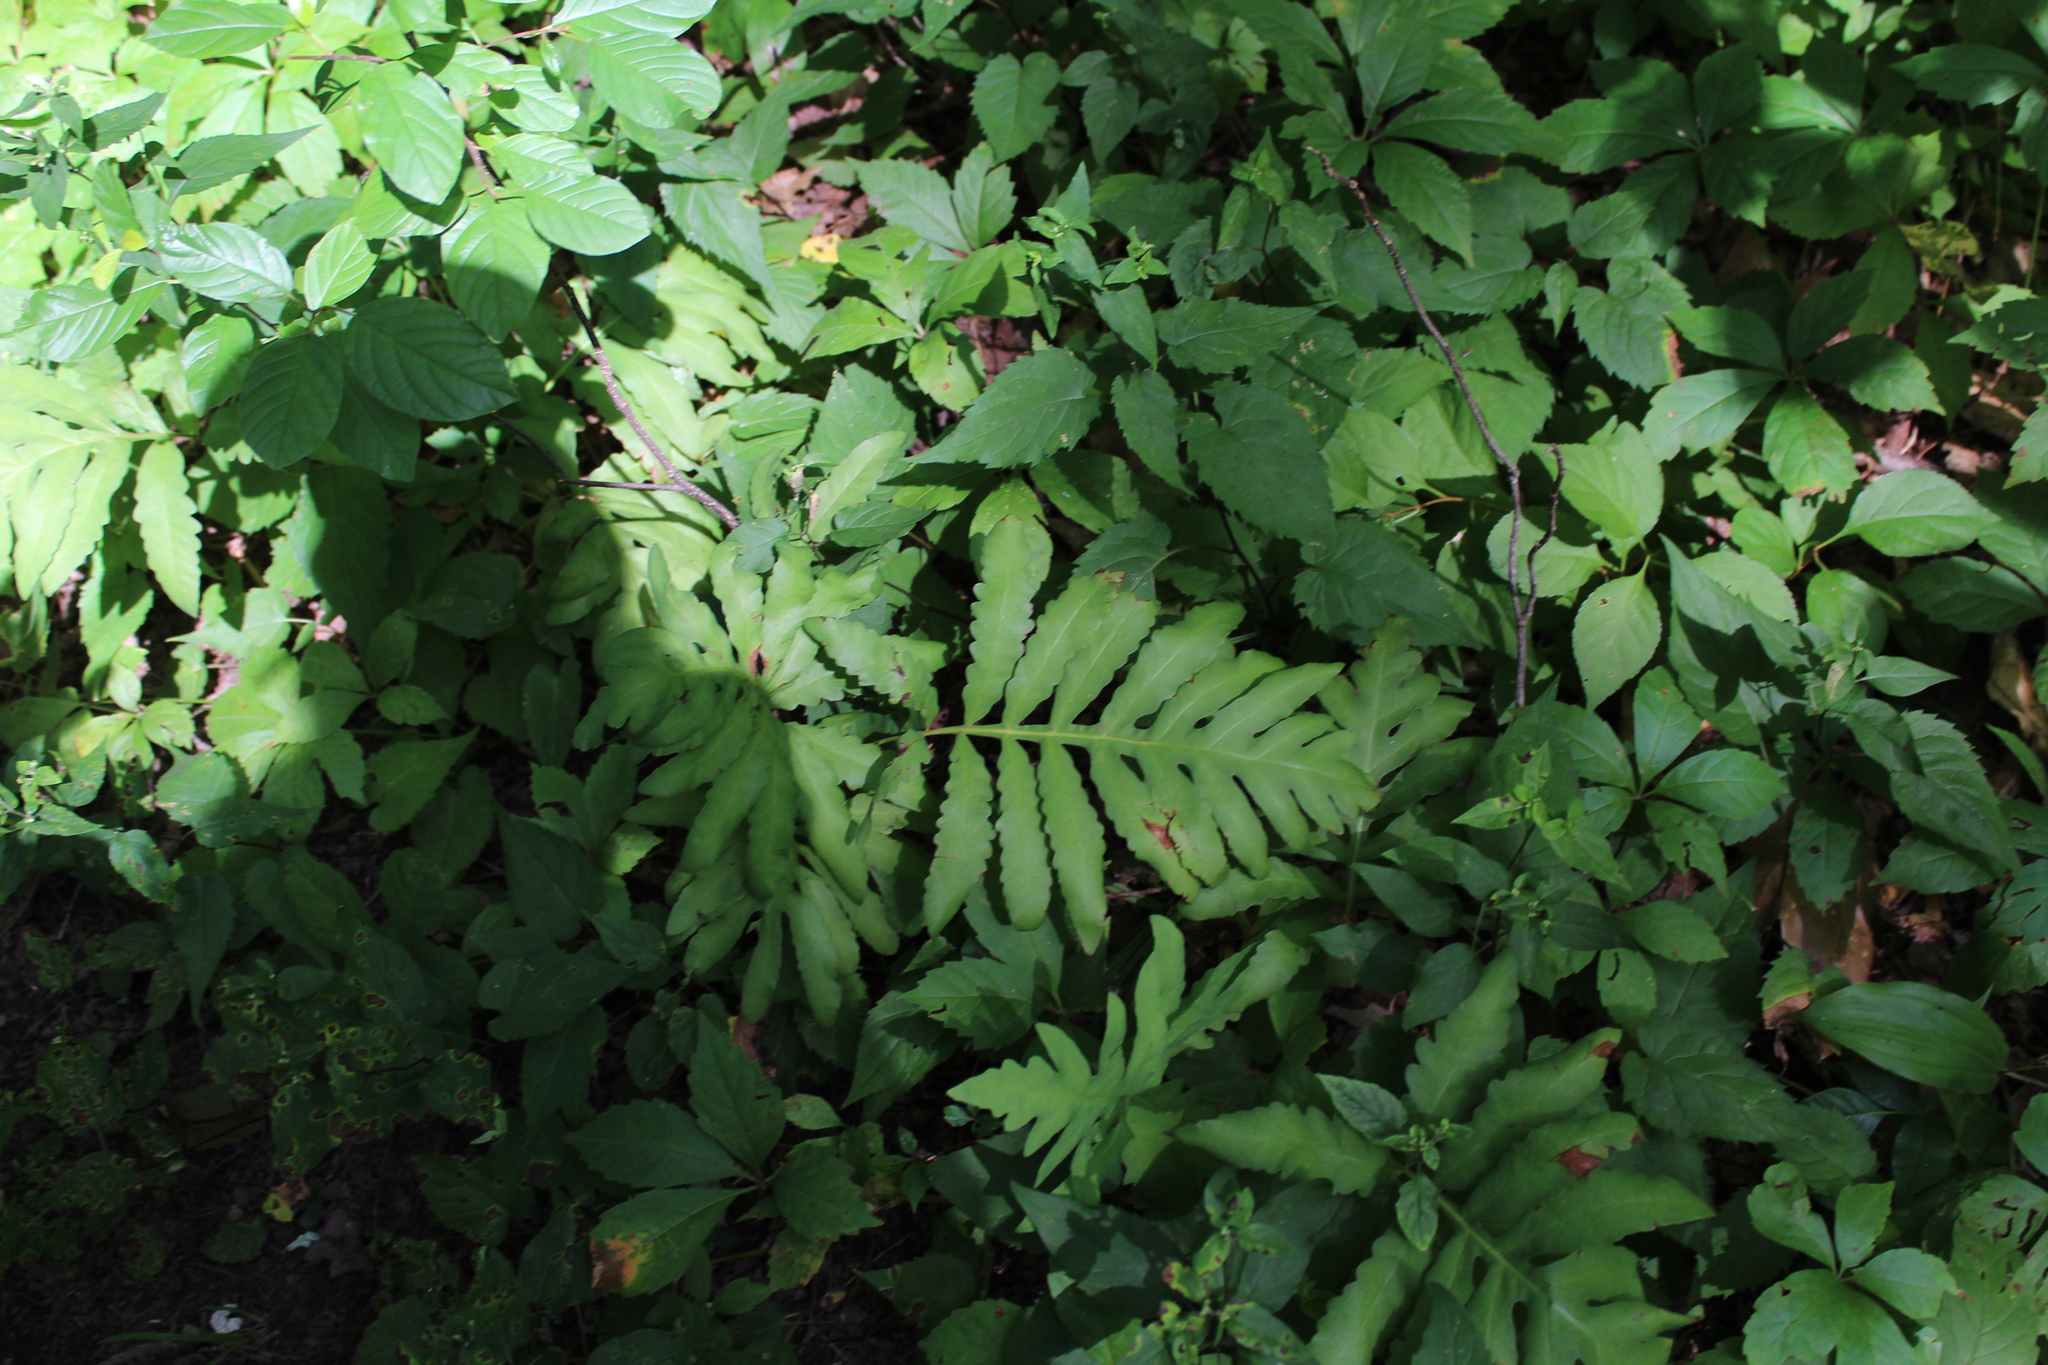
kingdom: Plantae
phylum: Tracheophyta
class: Polypodiopsida
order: Polypodiales
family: Onocleaceae
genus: Onoclea
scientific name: Onoclea sensibilis
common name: Sensitive fern
